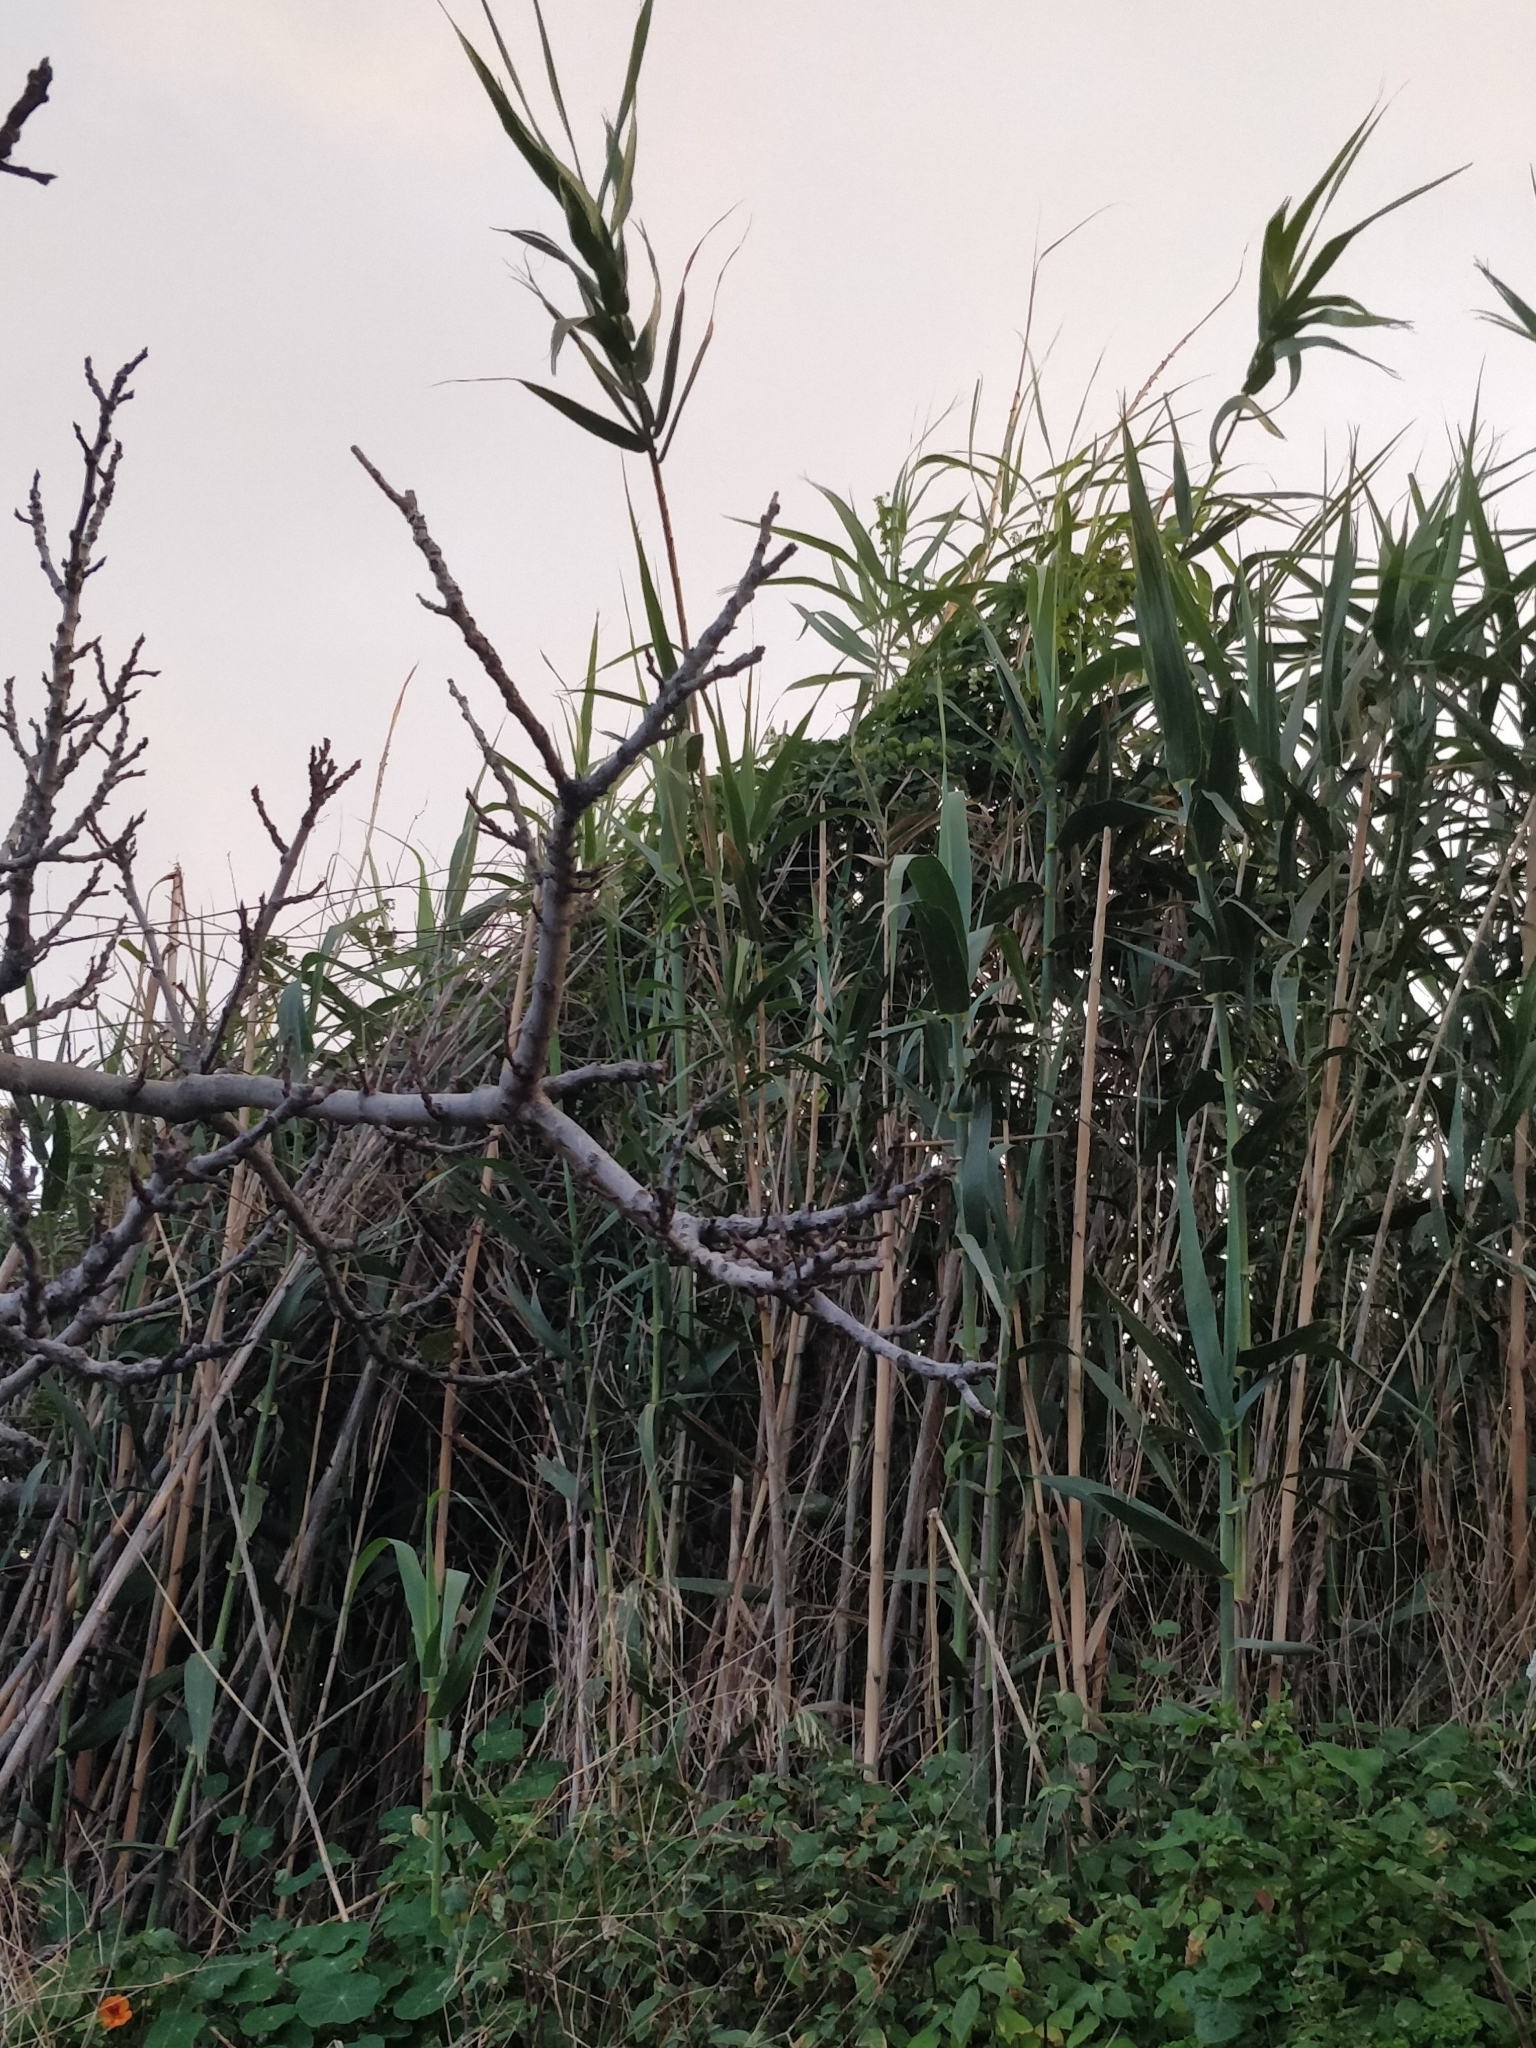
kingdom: Plantae
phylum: Tracheophyta
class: Liliopsida
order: Poales
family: Poaceae
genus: Arundo
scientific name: Arundo donax
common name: Giant reed
